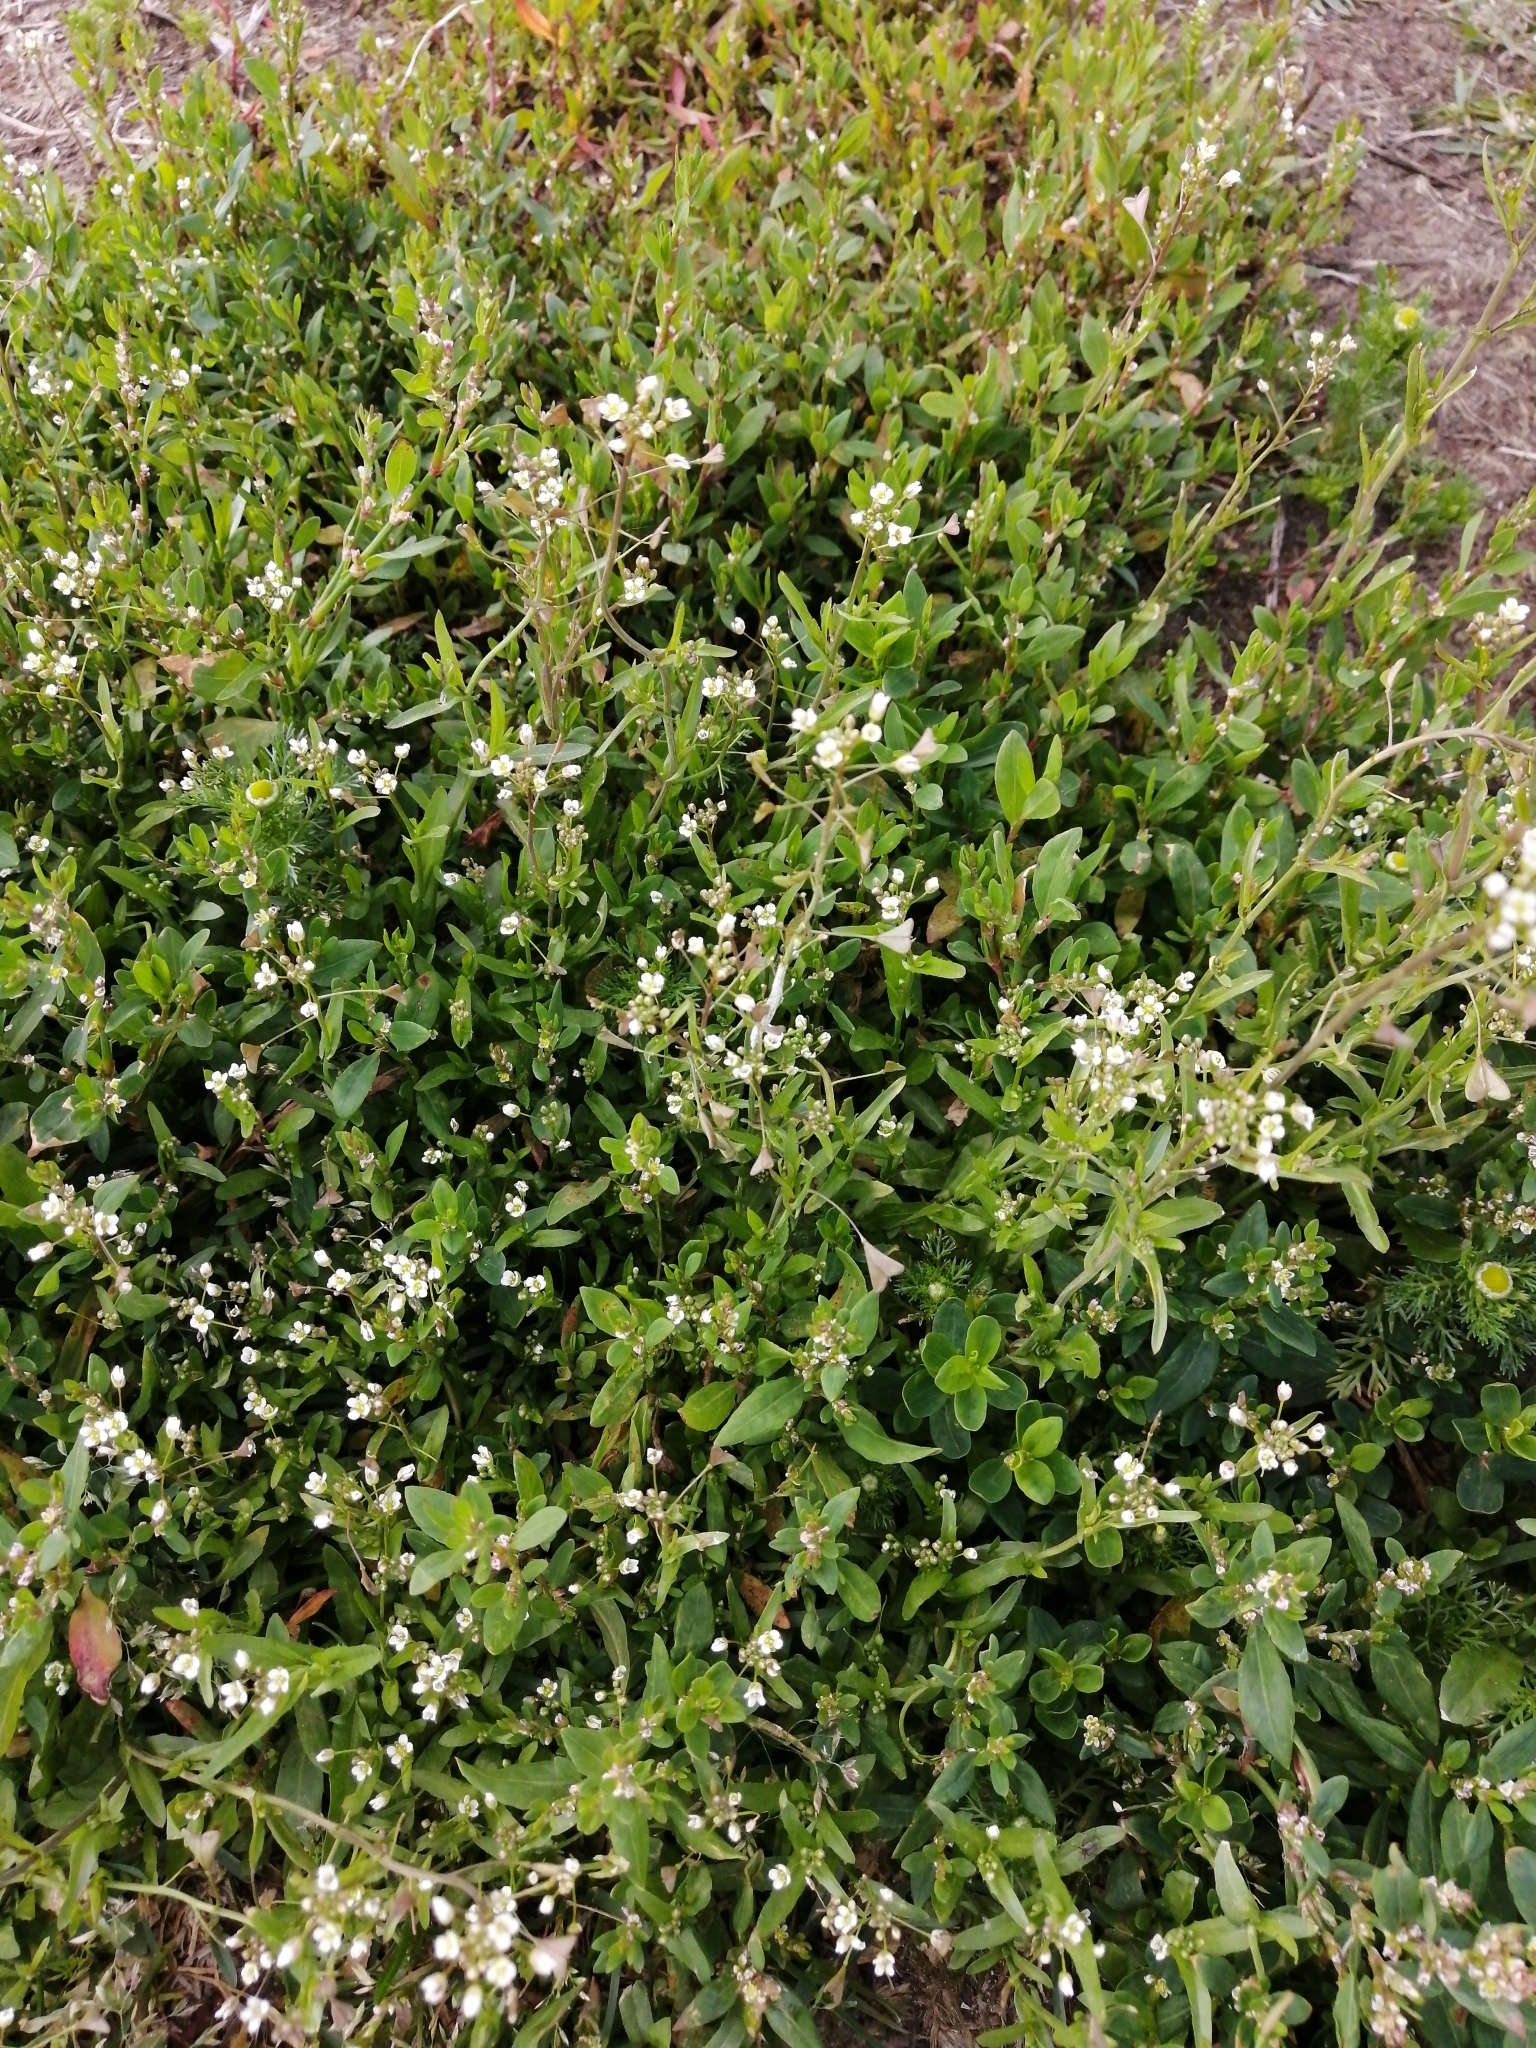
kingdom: Plantae
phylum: Tracheophyta
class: Magnoliopsida
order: Brassicales
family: Brassicaceae
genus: Capsella
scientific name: Capsella bursa-pastoris
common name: Shepherd's purse
